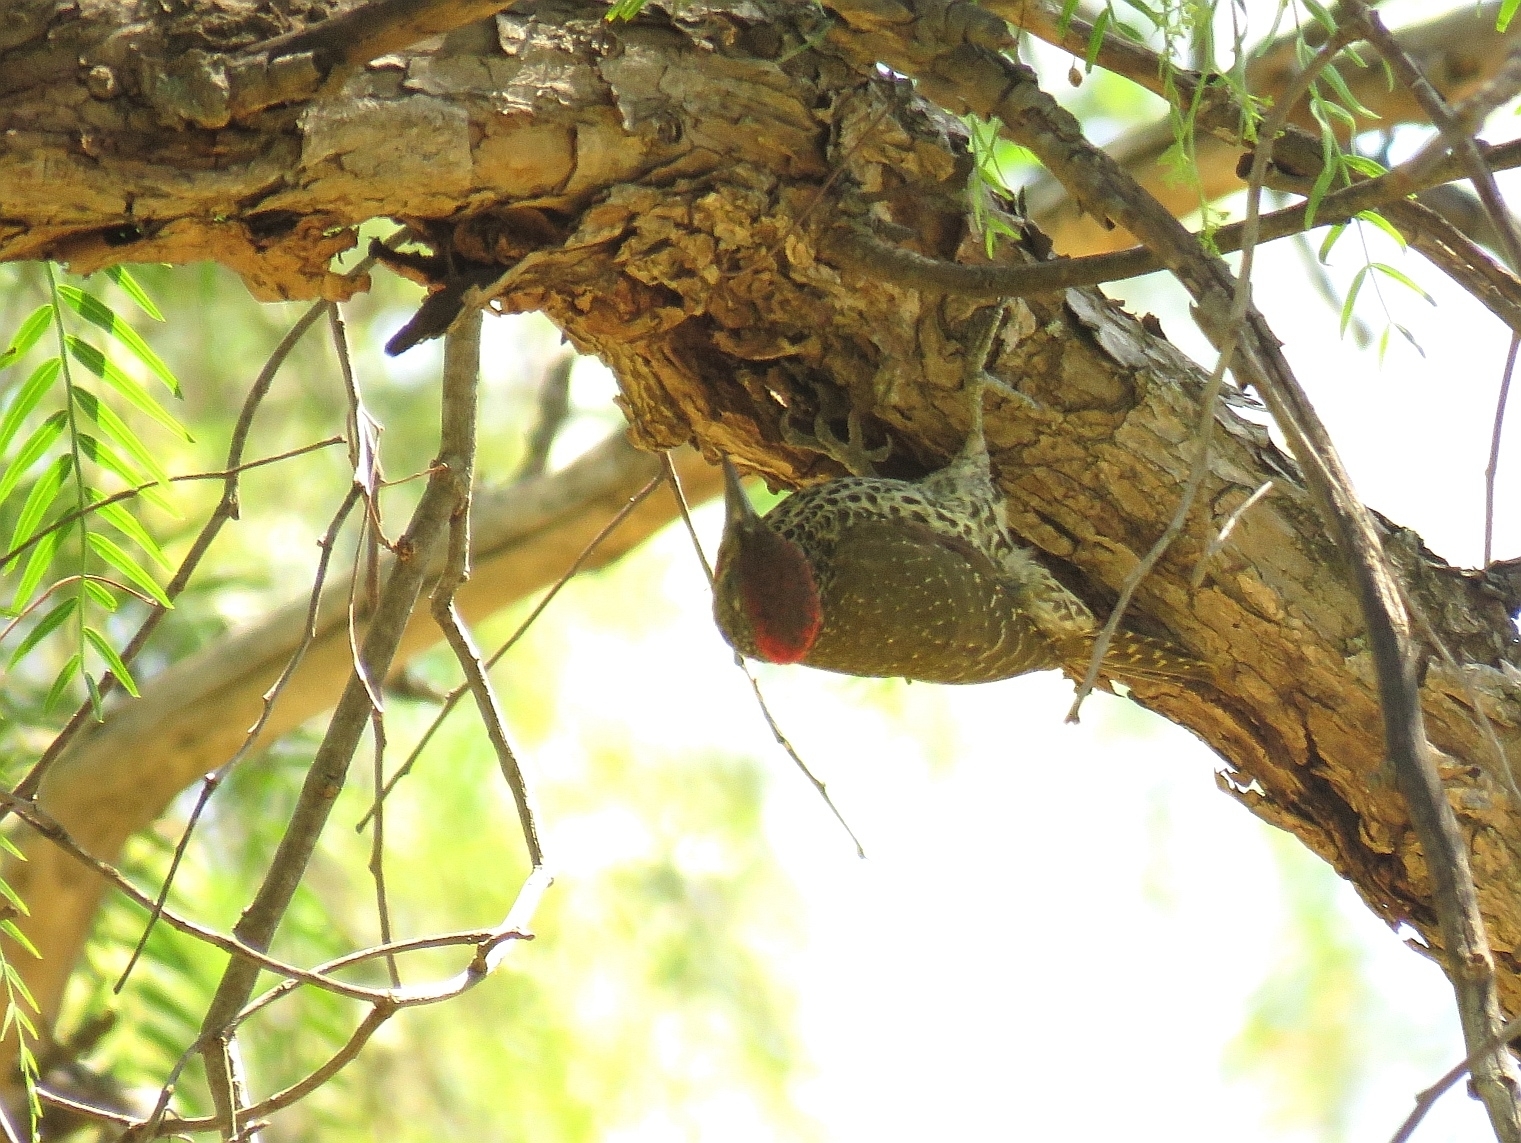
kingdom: Animalia
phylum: Chordata
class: Aves
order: Piciformes
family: Picidae
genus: Campethera
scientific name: Campethera notata
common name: Knysna woodpecker
